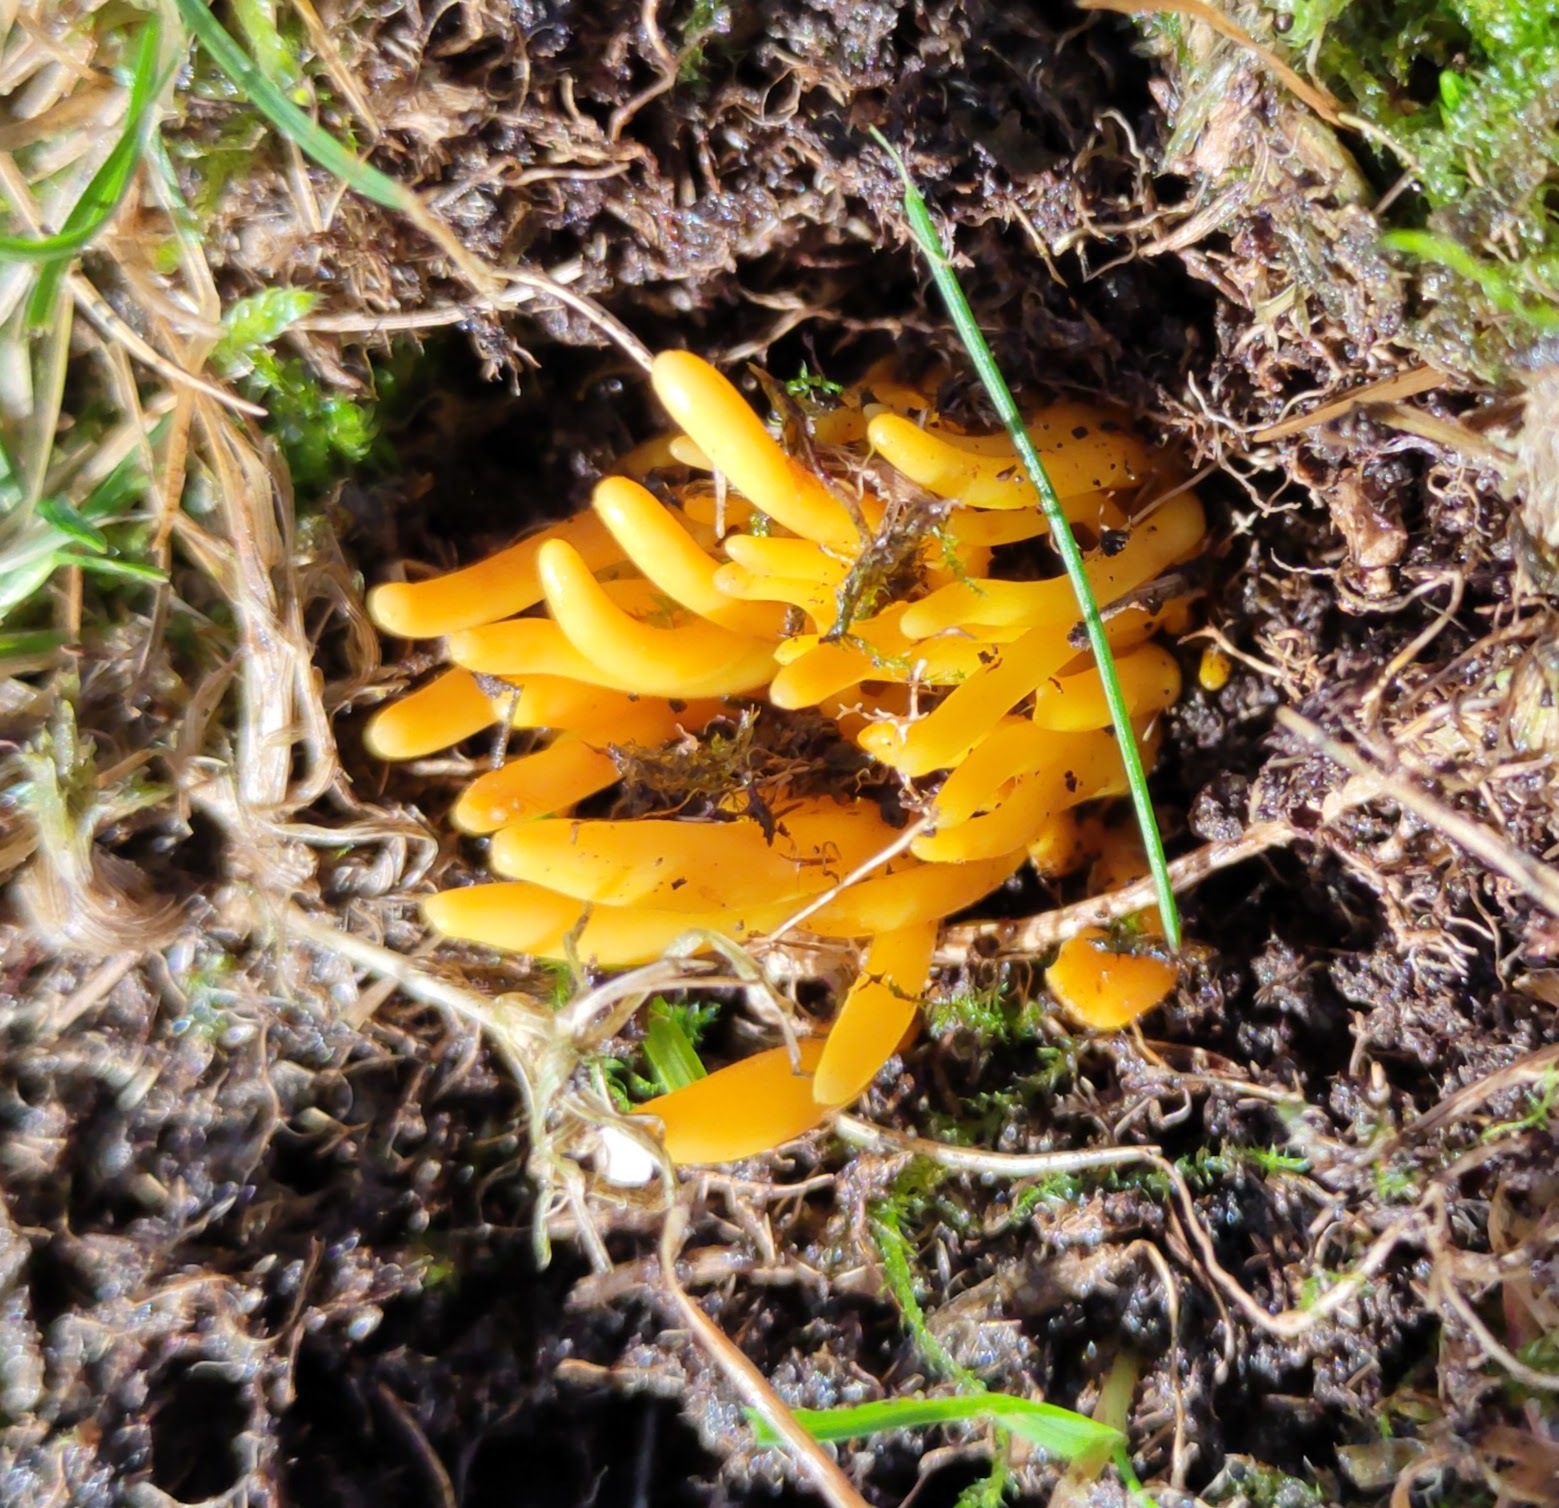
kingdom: Fungi
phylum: Basidiomycota
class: Agaricomycetes
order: Agaricales
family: Clavariaceae
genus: Clavulinopsis
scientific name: Clavulinopsis fusiformis
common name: Golden spindles
